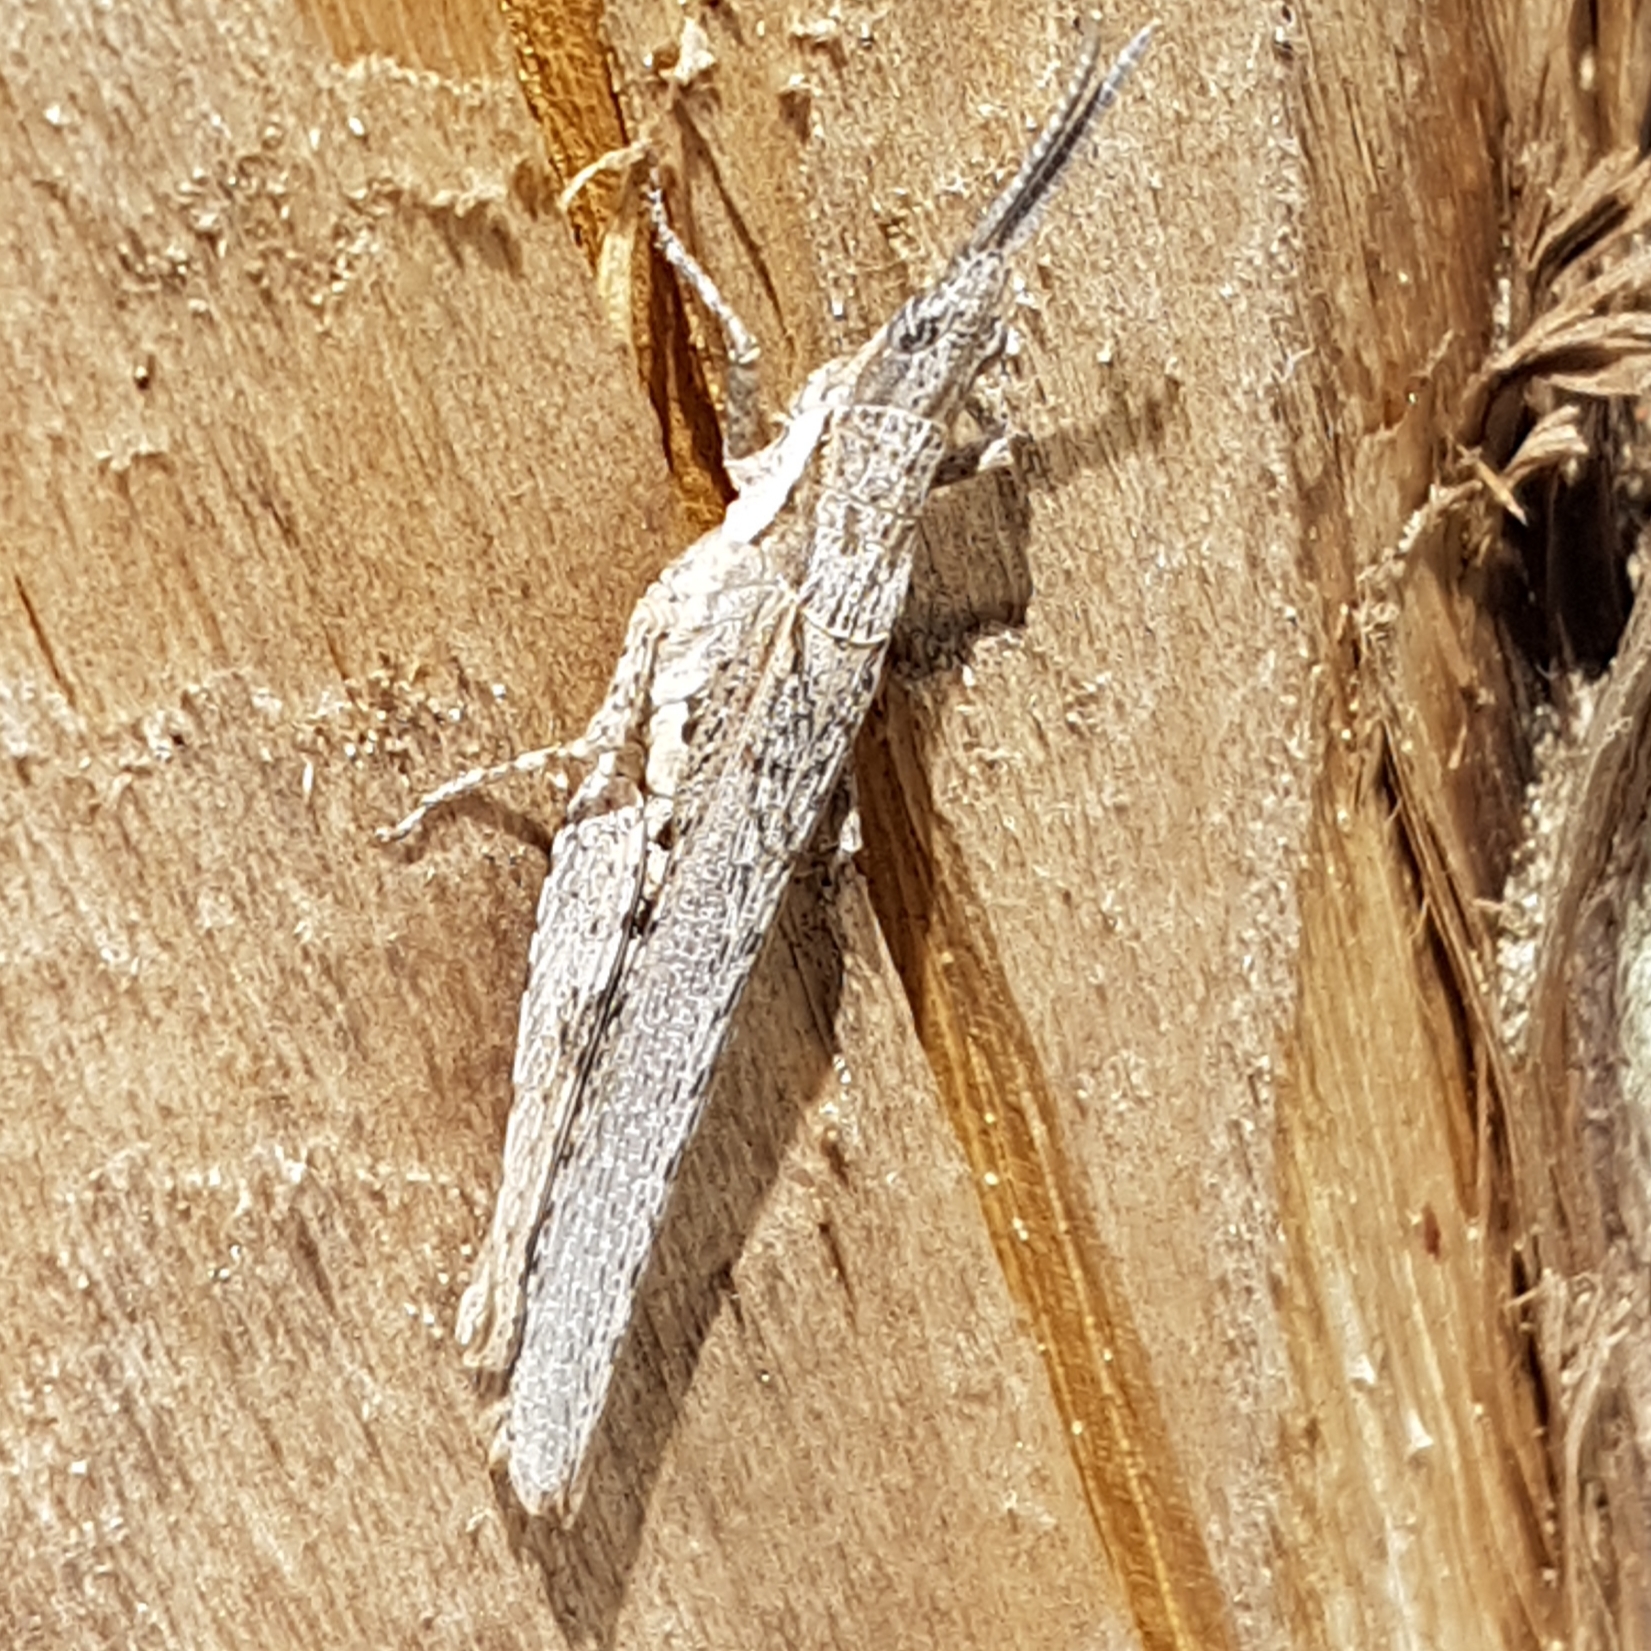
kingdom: Animalia
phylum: Arthropoda
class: Insecta
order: Orthoptera
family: Pyrgomorphidae
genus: Pyrgomorpha
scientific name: Pyrgomorpha conica
